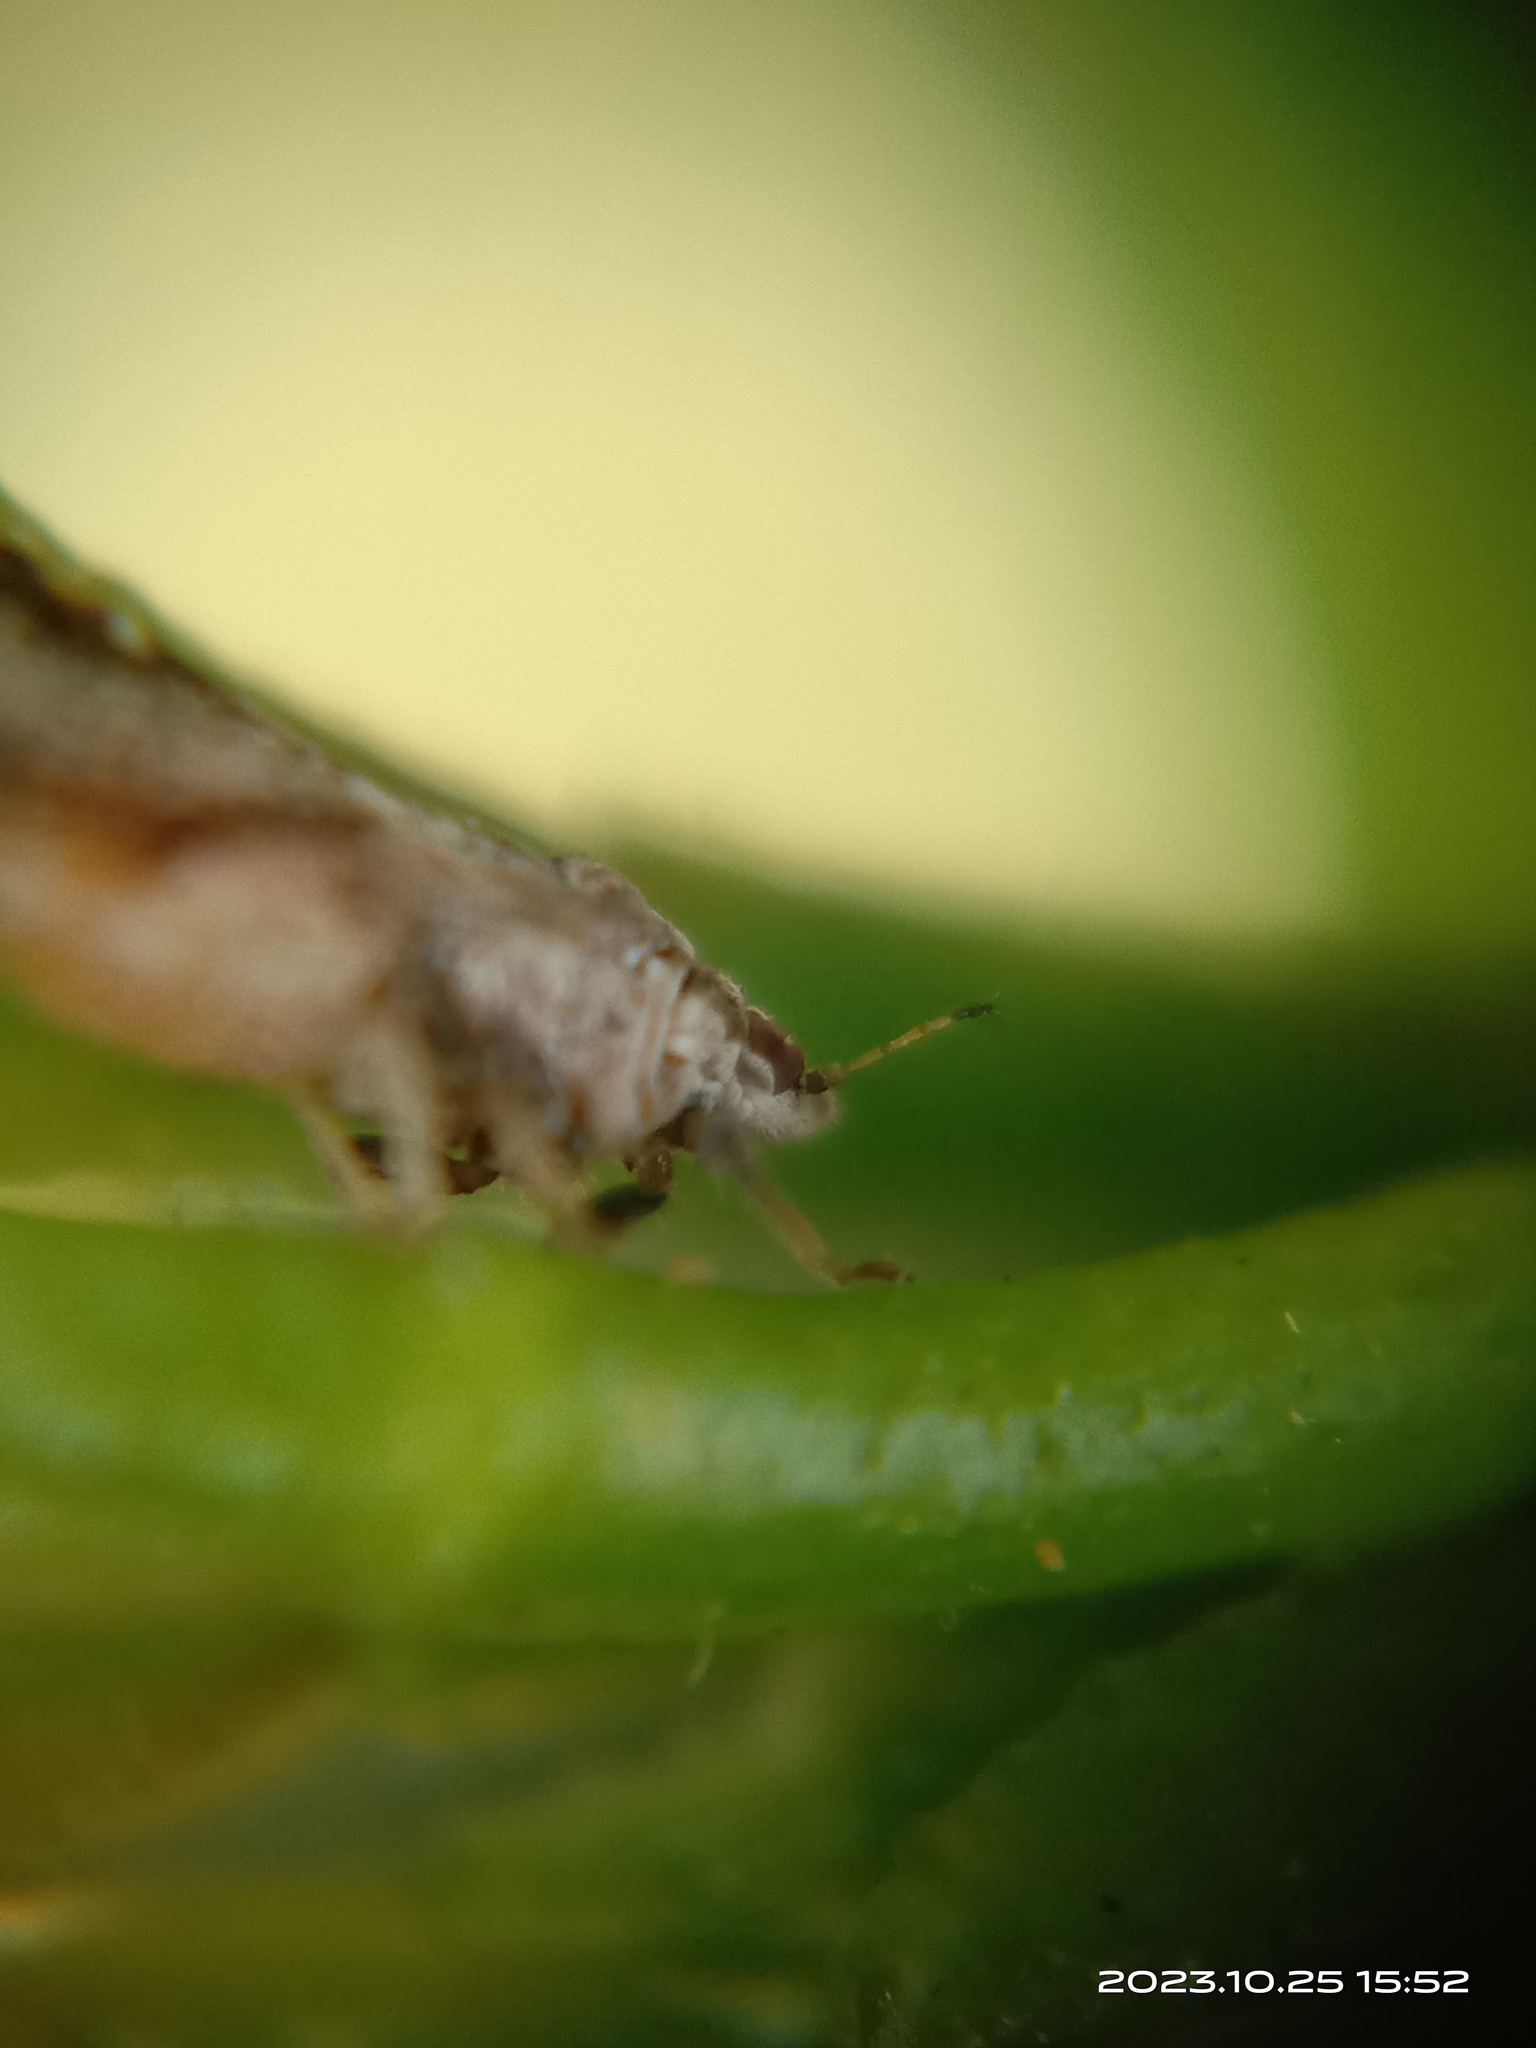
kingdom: Animalia
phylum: Arthropoda
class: Insecta
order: Hemiptera
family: Liviidae
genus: Diaphorina
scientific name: Diaphorina citri
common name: Asian citrus psyllid
